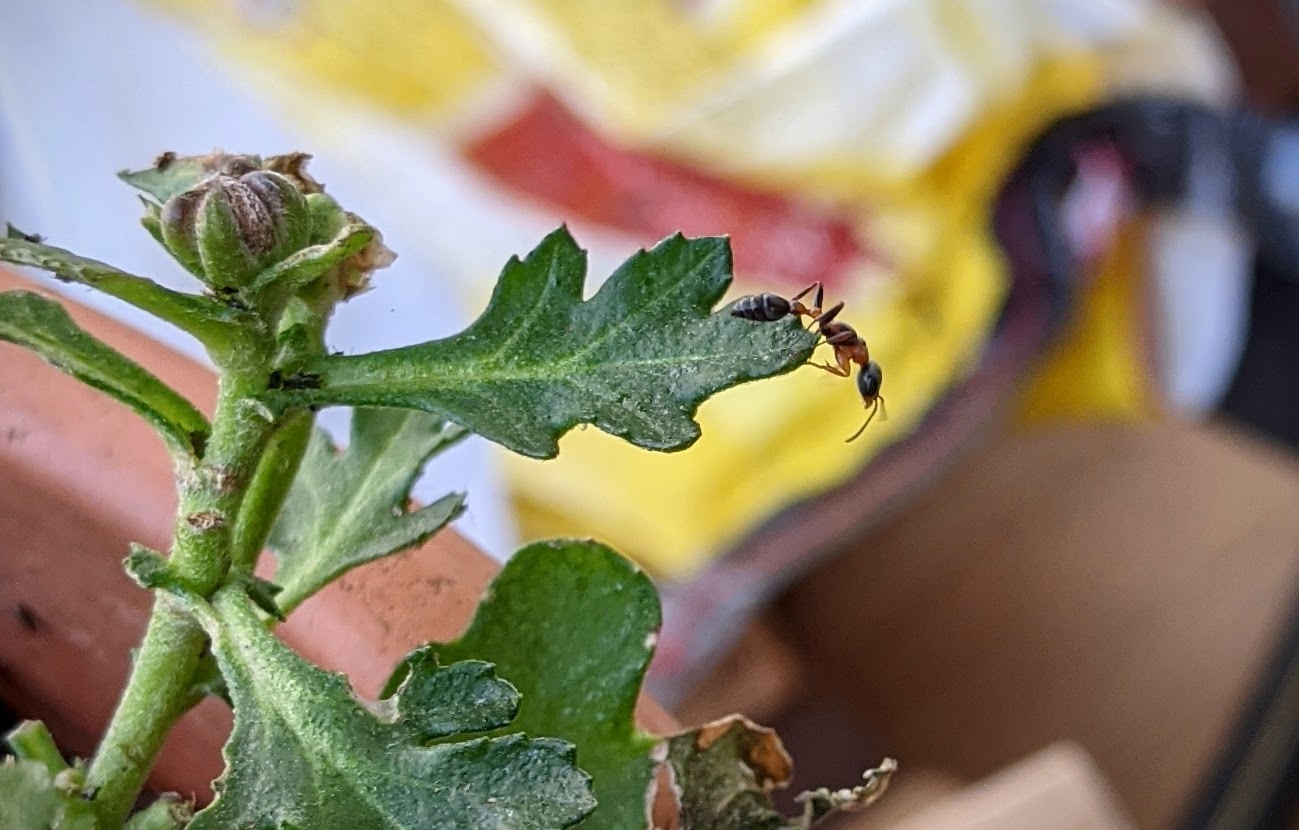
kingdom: Animalia
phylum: Arthropoda
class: Insecta
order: Hymenoptera
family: Formicidae
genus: Pseudomyrmex
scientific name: Pseudomyrmex gracilis
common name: Graceful twig ant
